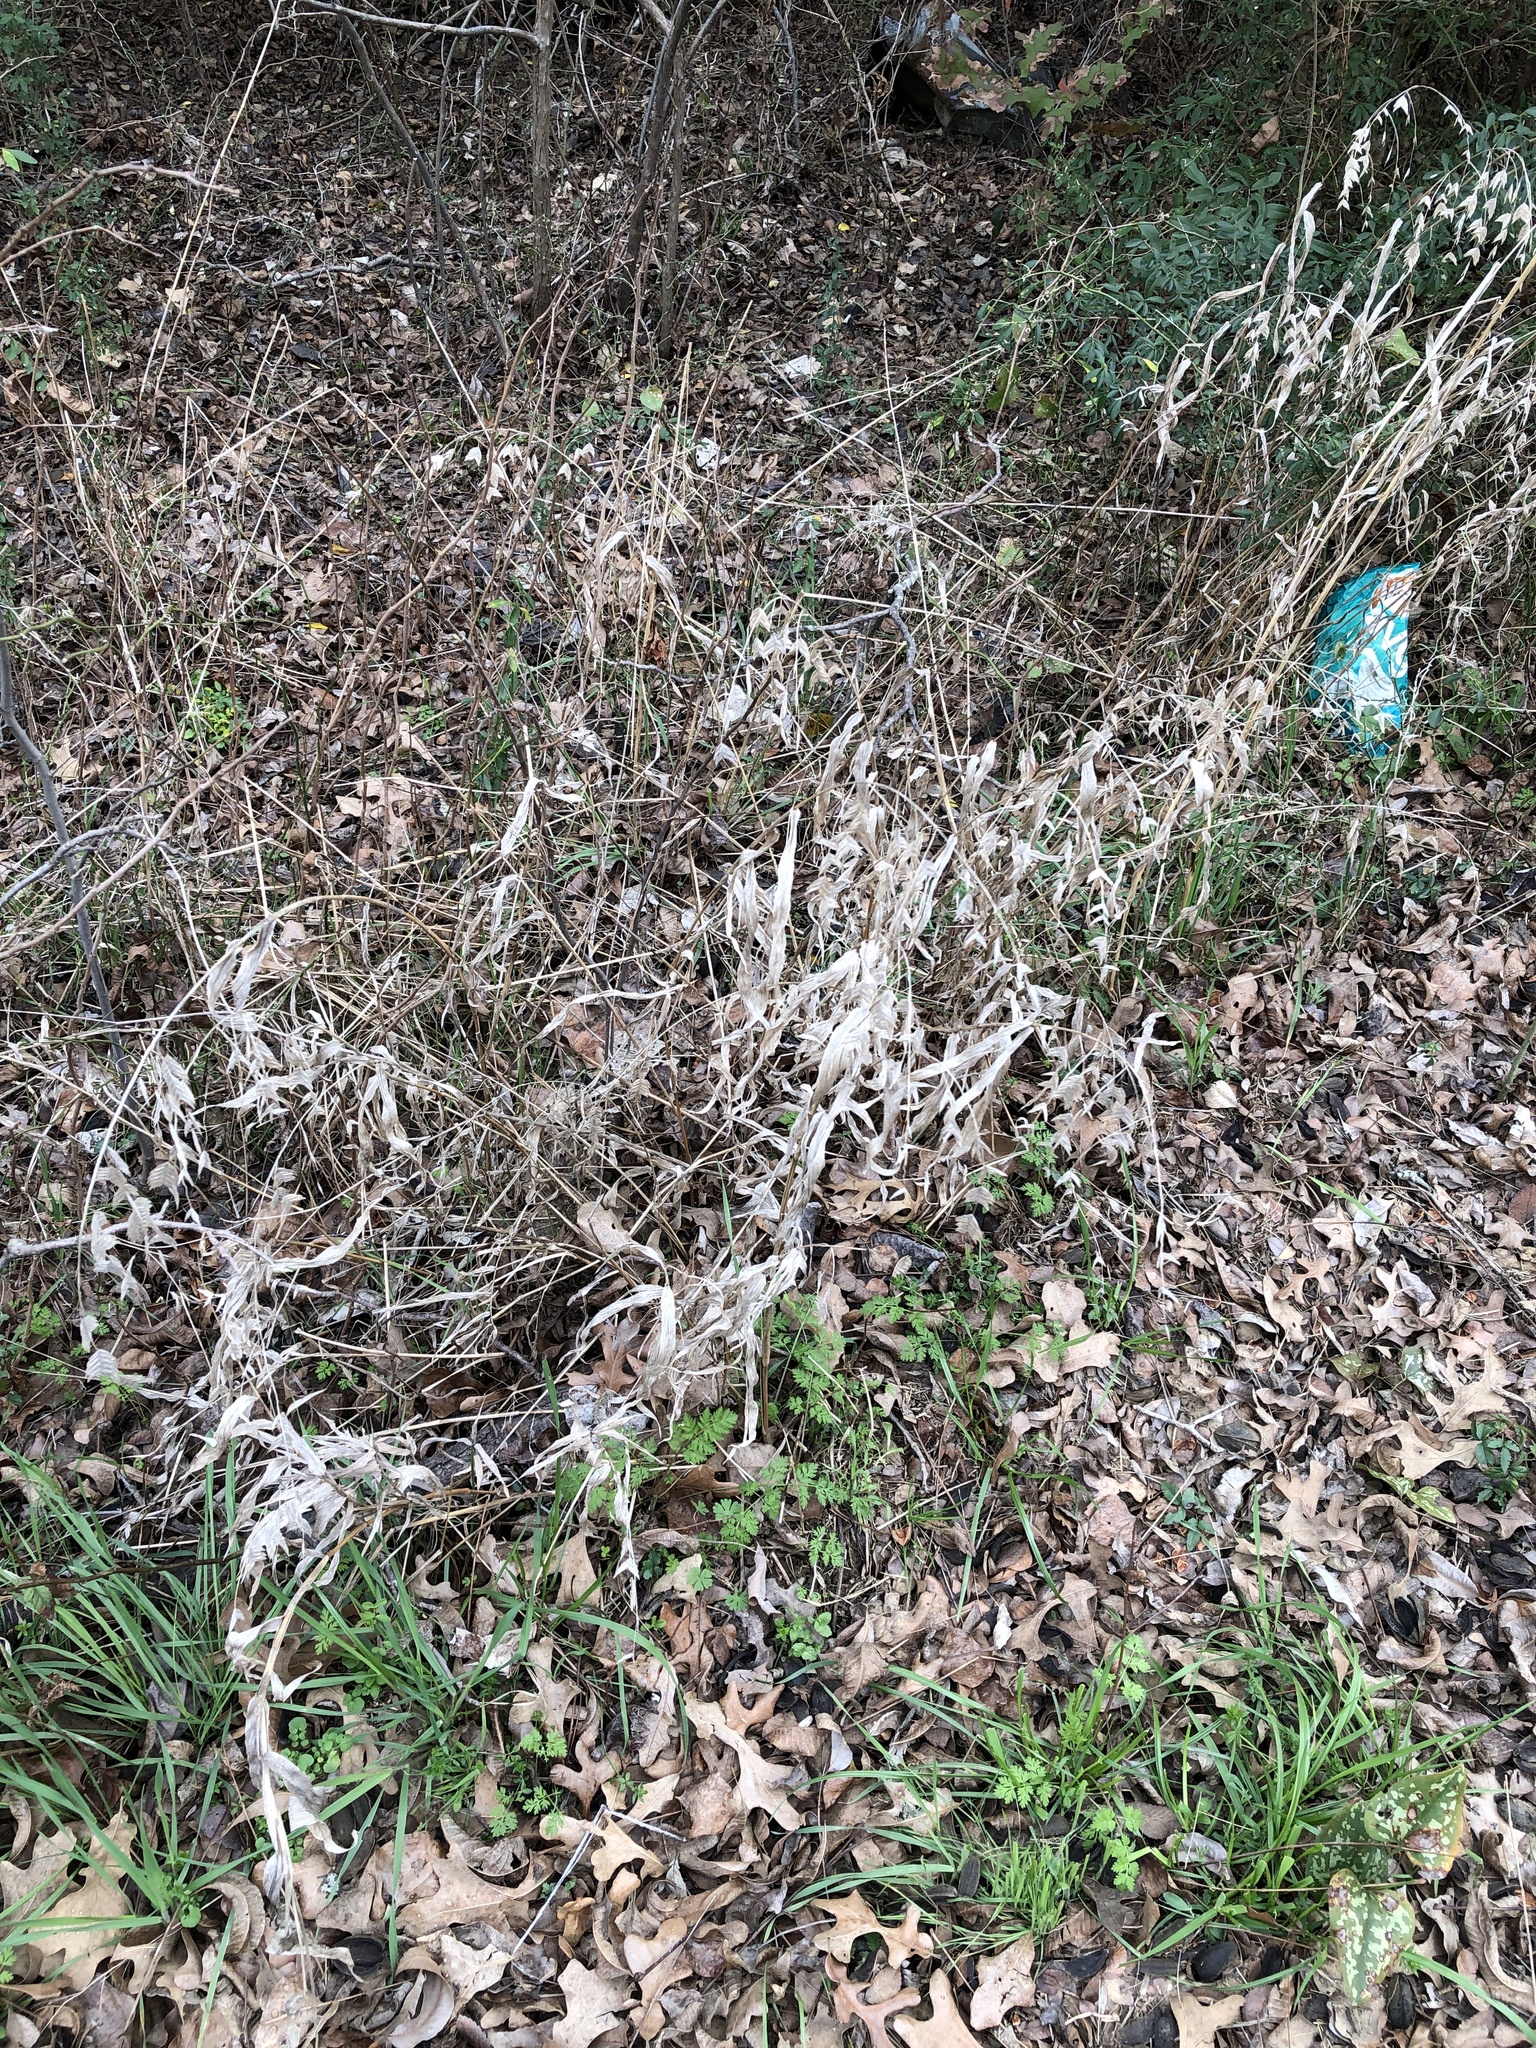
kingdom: Plantae
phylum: Tracheophyta
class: Liliopsida
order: Poales
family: Poaceae
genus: Chasmanthium
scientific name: Chasmanthium latifolium
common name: Broad-leaved chasmanthium
